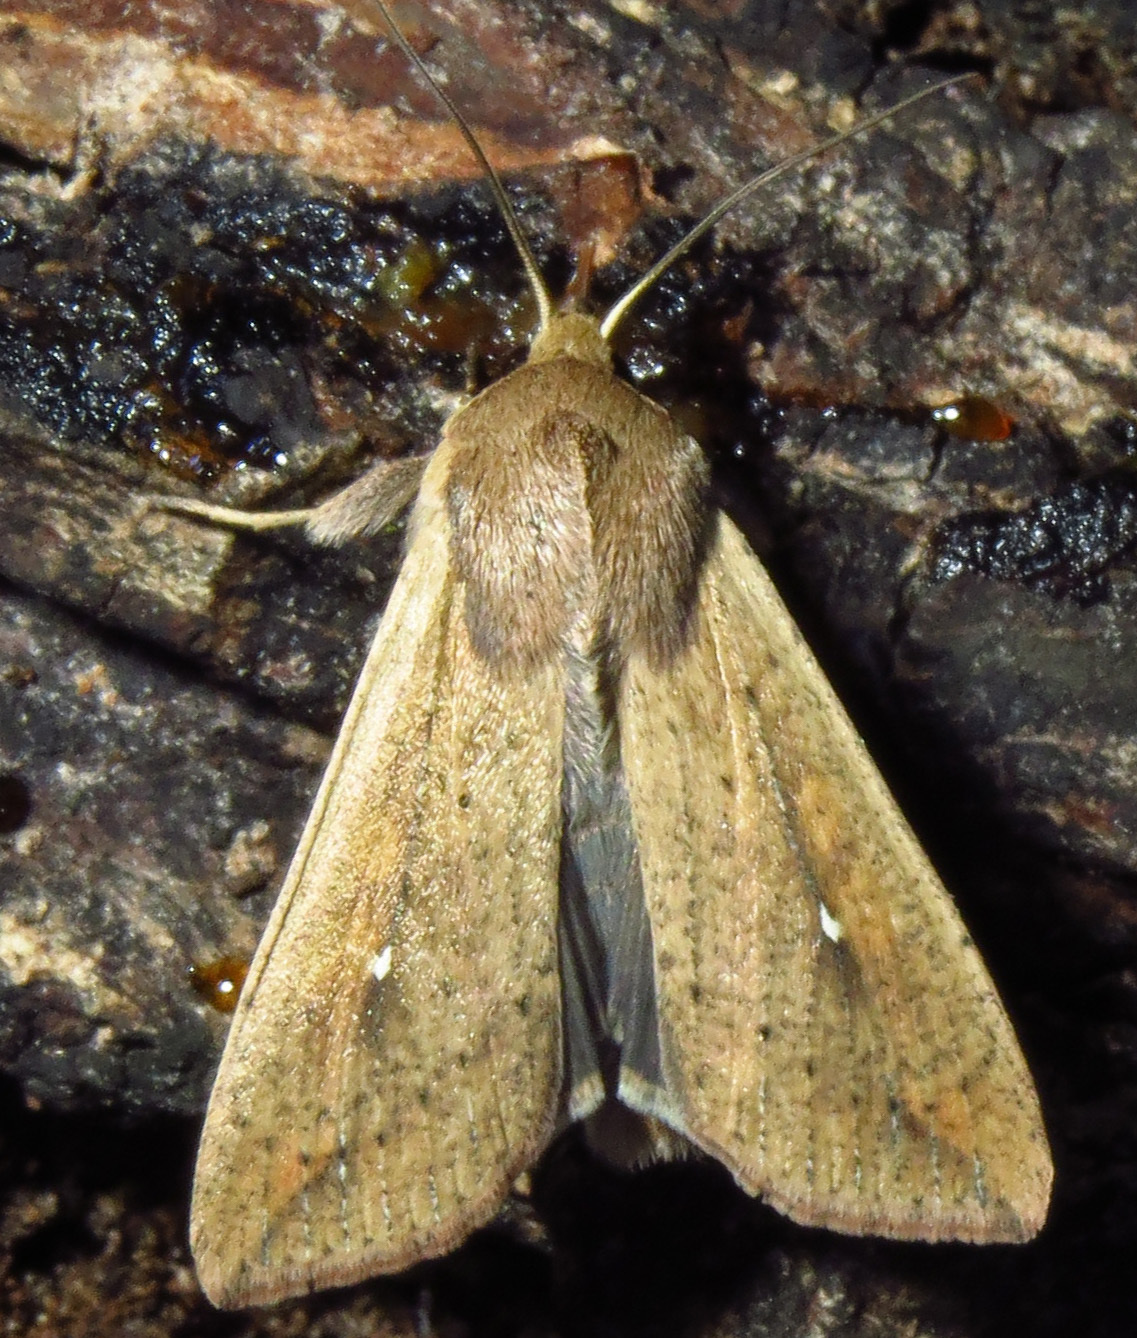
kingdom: Animalia
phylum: Arthropoda
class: Insecta
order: Lepidoptera
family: Noctuidae
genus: Mythimna
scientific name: Mythimna unipuncta
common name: White-speck
